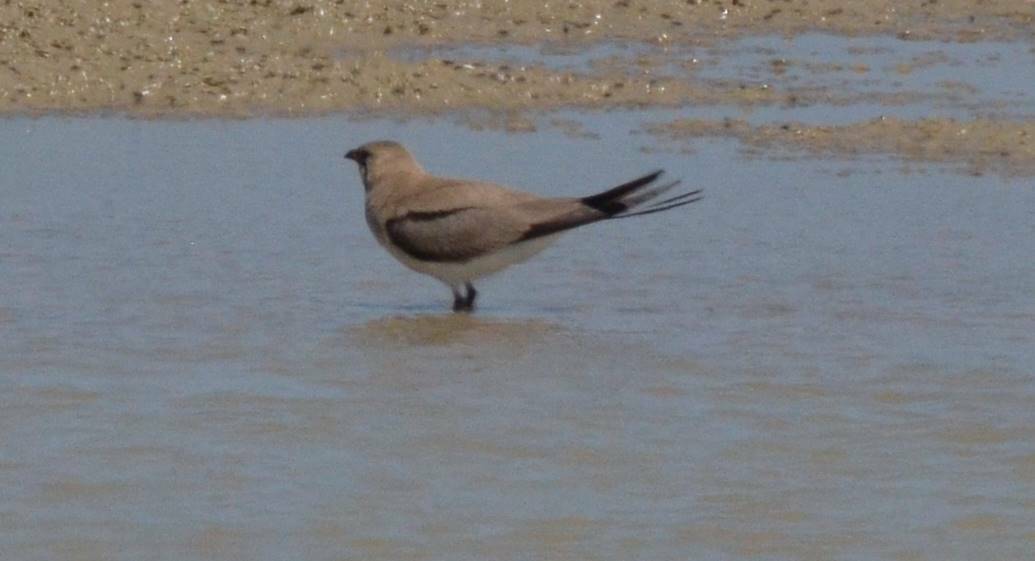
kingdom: Animalia
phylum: Chordata
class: Aves
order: Charadriiformes
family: Glareolidae
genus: Glareola
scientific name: Glareola pratincola
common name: Collared pratincole
